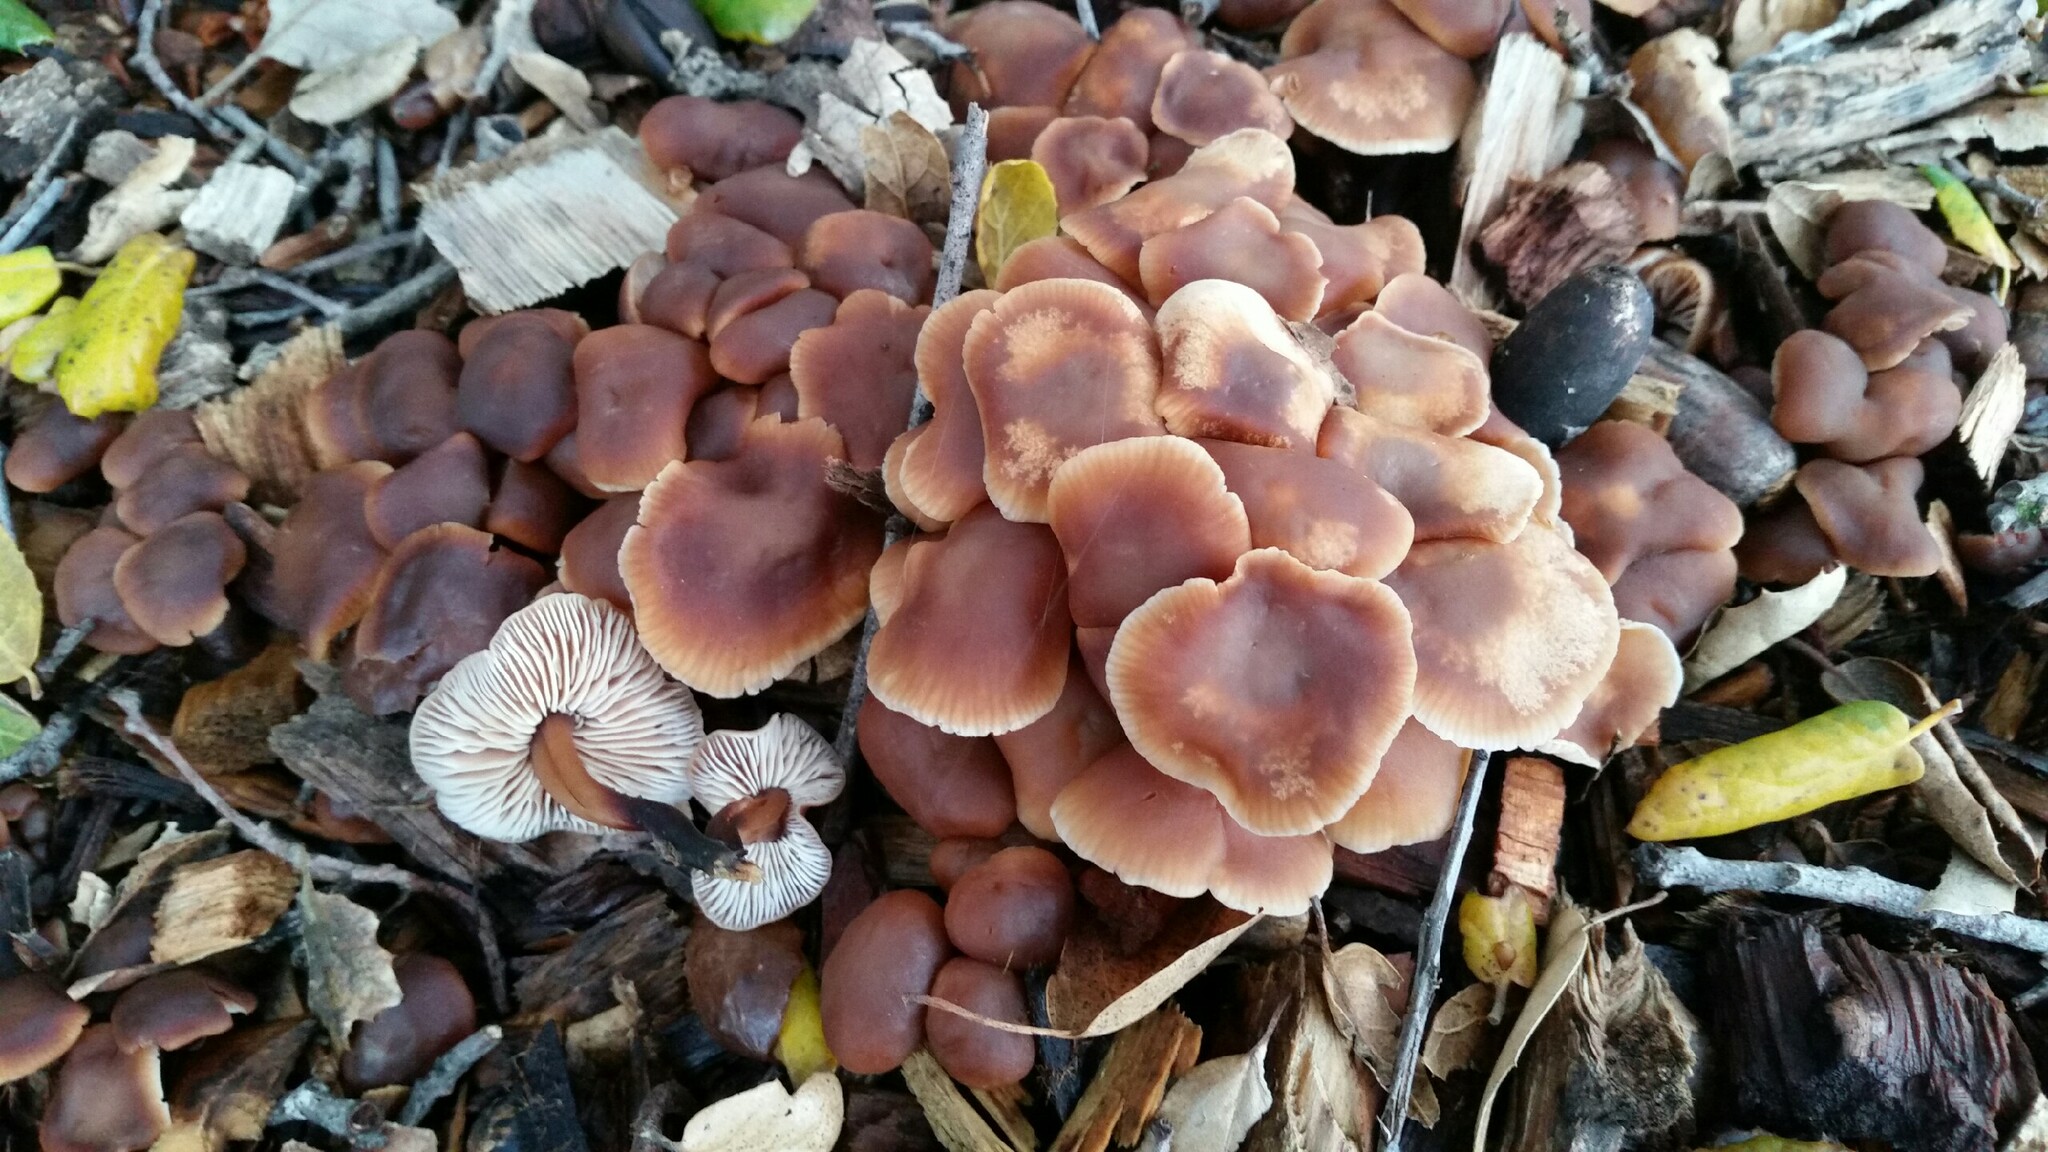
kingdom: Fungi
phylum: Basidiomycota
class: Agaricomycetes
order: Agaricales
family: Omphalotaceae
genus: Gymnopus
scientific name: Gymnopus brassicolens
